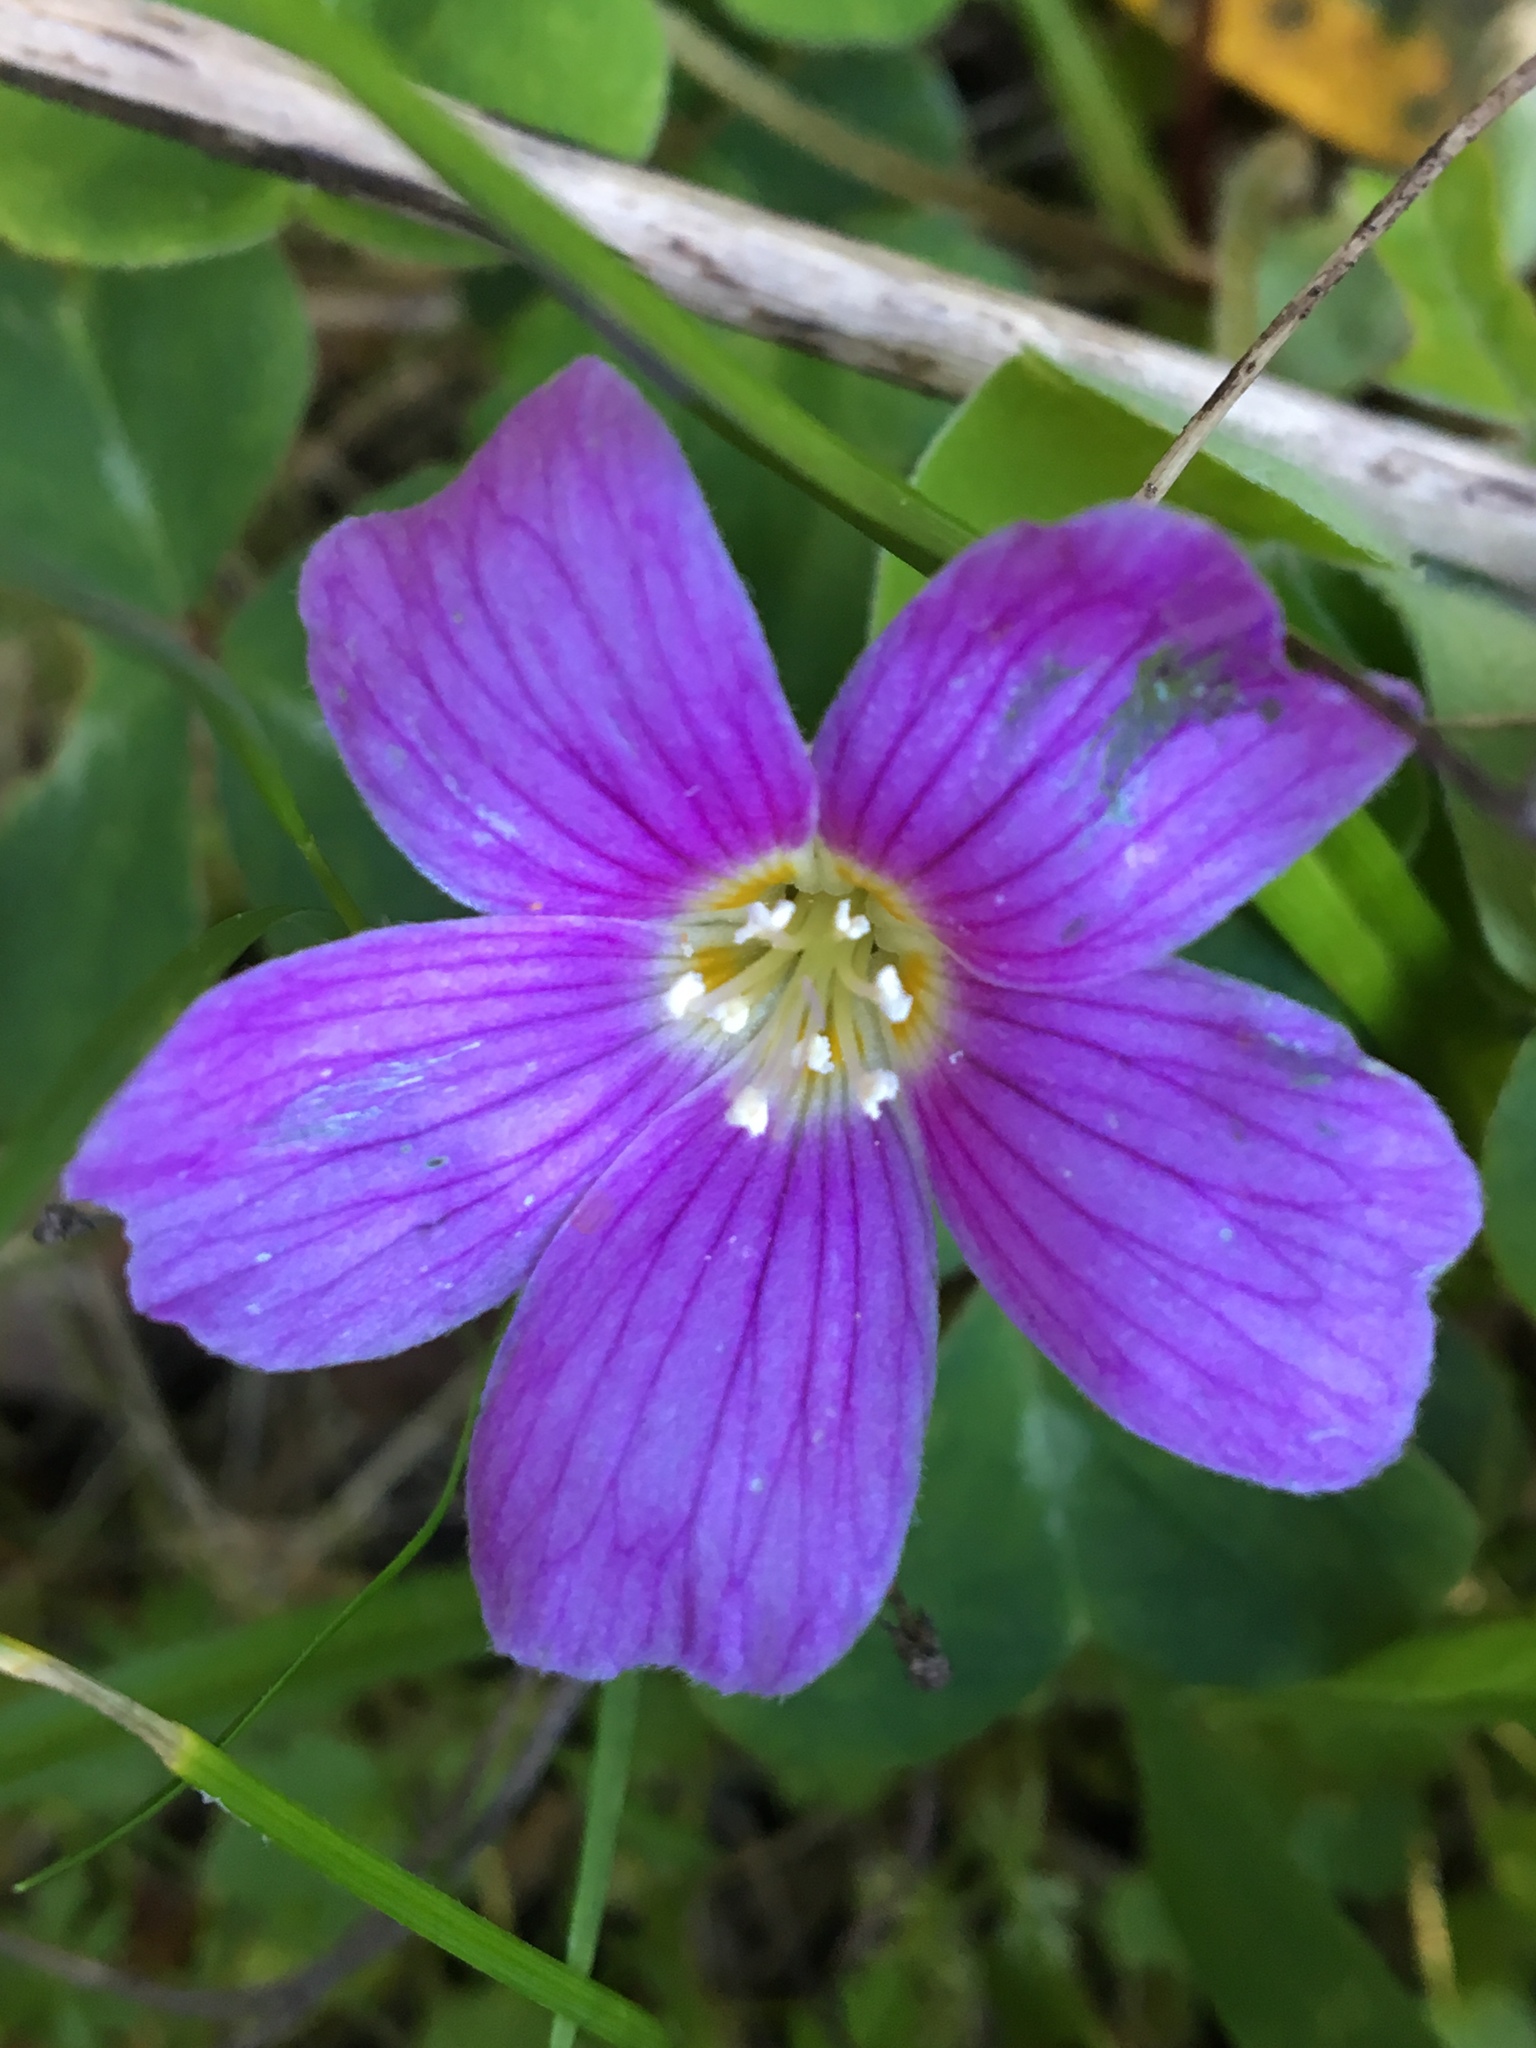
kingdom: Plantae
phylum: Tracheophyta
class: Magnoliopsida
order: Oxalidales
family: Oxalidaceae
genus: Oxalis
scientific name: Oxalis oregana
